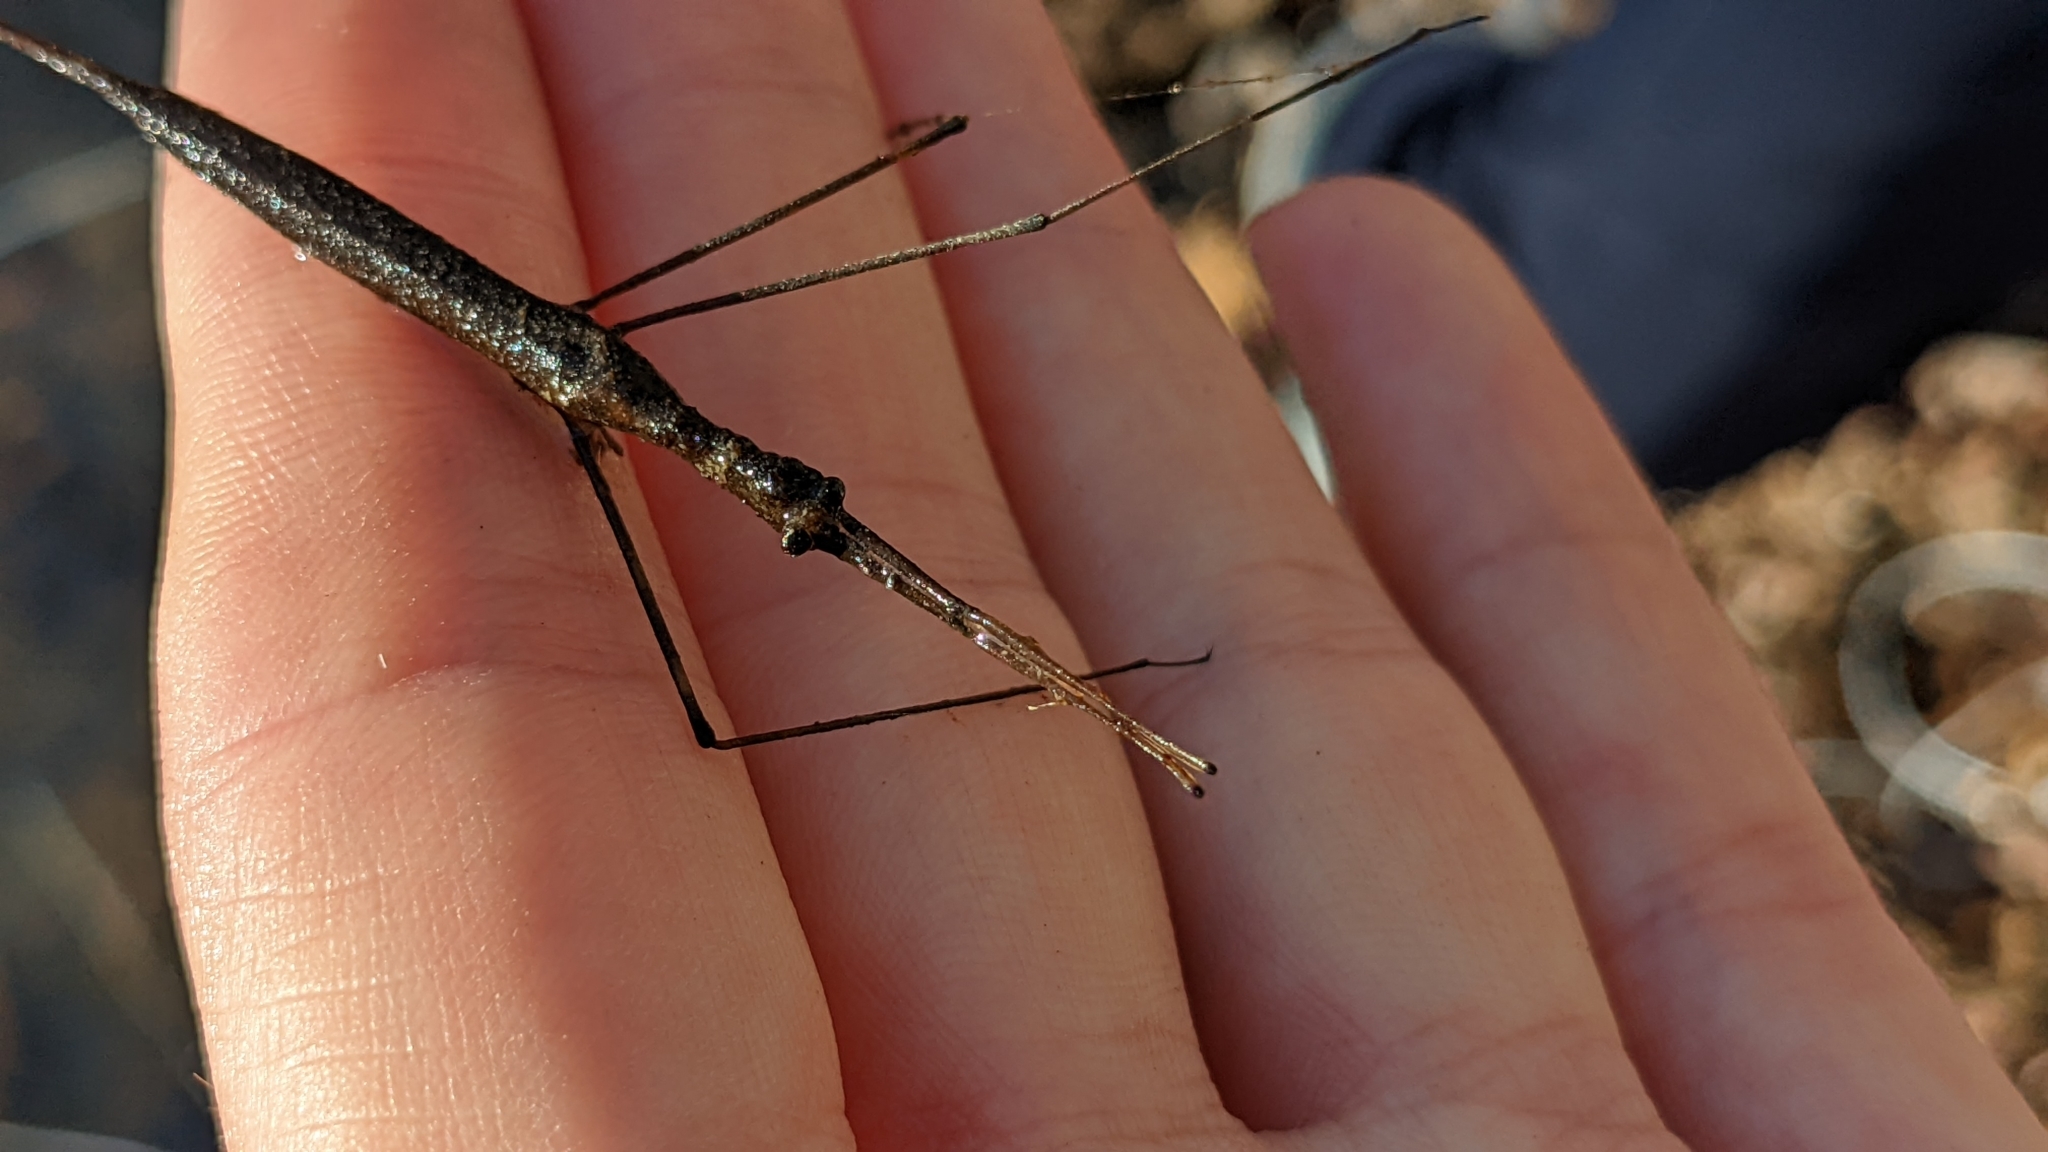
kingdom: Animalia
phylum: Arthropoda
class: Insecta
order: Hemiptera
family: Nepidae
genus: Ranatra
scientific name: Ranatra
